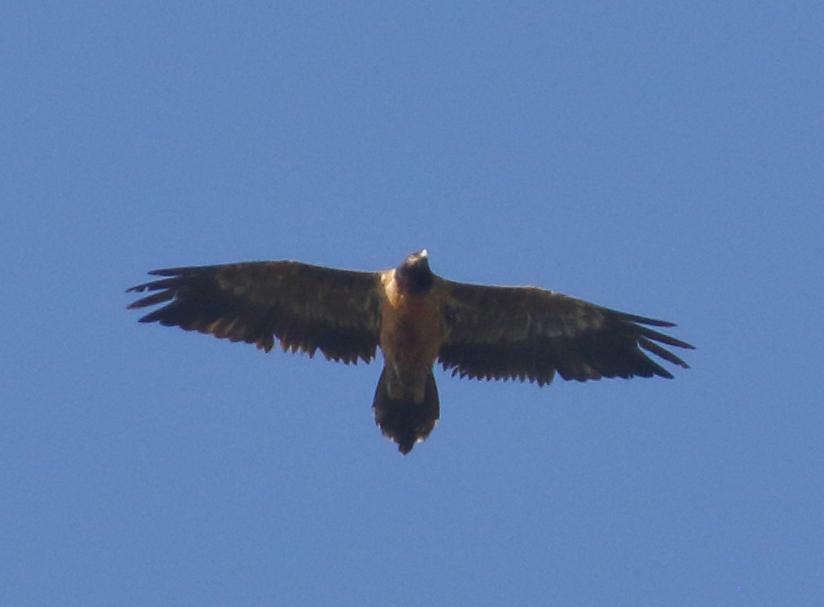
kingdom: Animalia
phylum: Chordata
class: Aves
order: Accipitriformes
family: Accipitridae
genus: Gypaetus
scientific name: Gypaetus barbatus
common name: Bearded vulture
